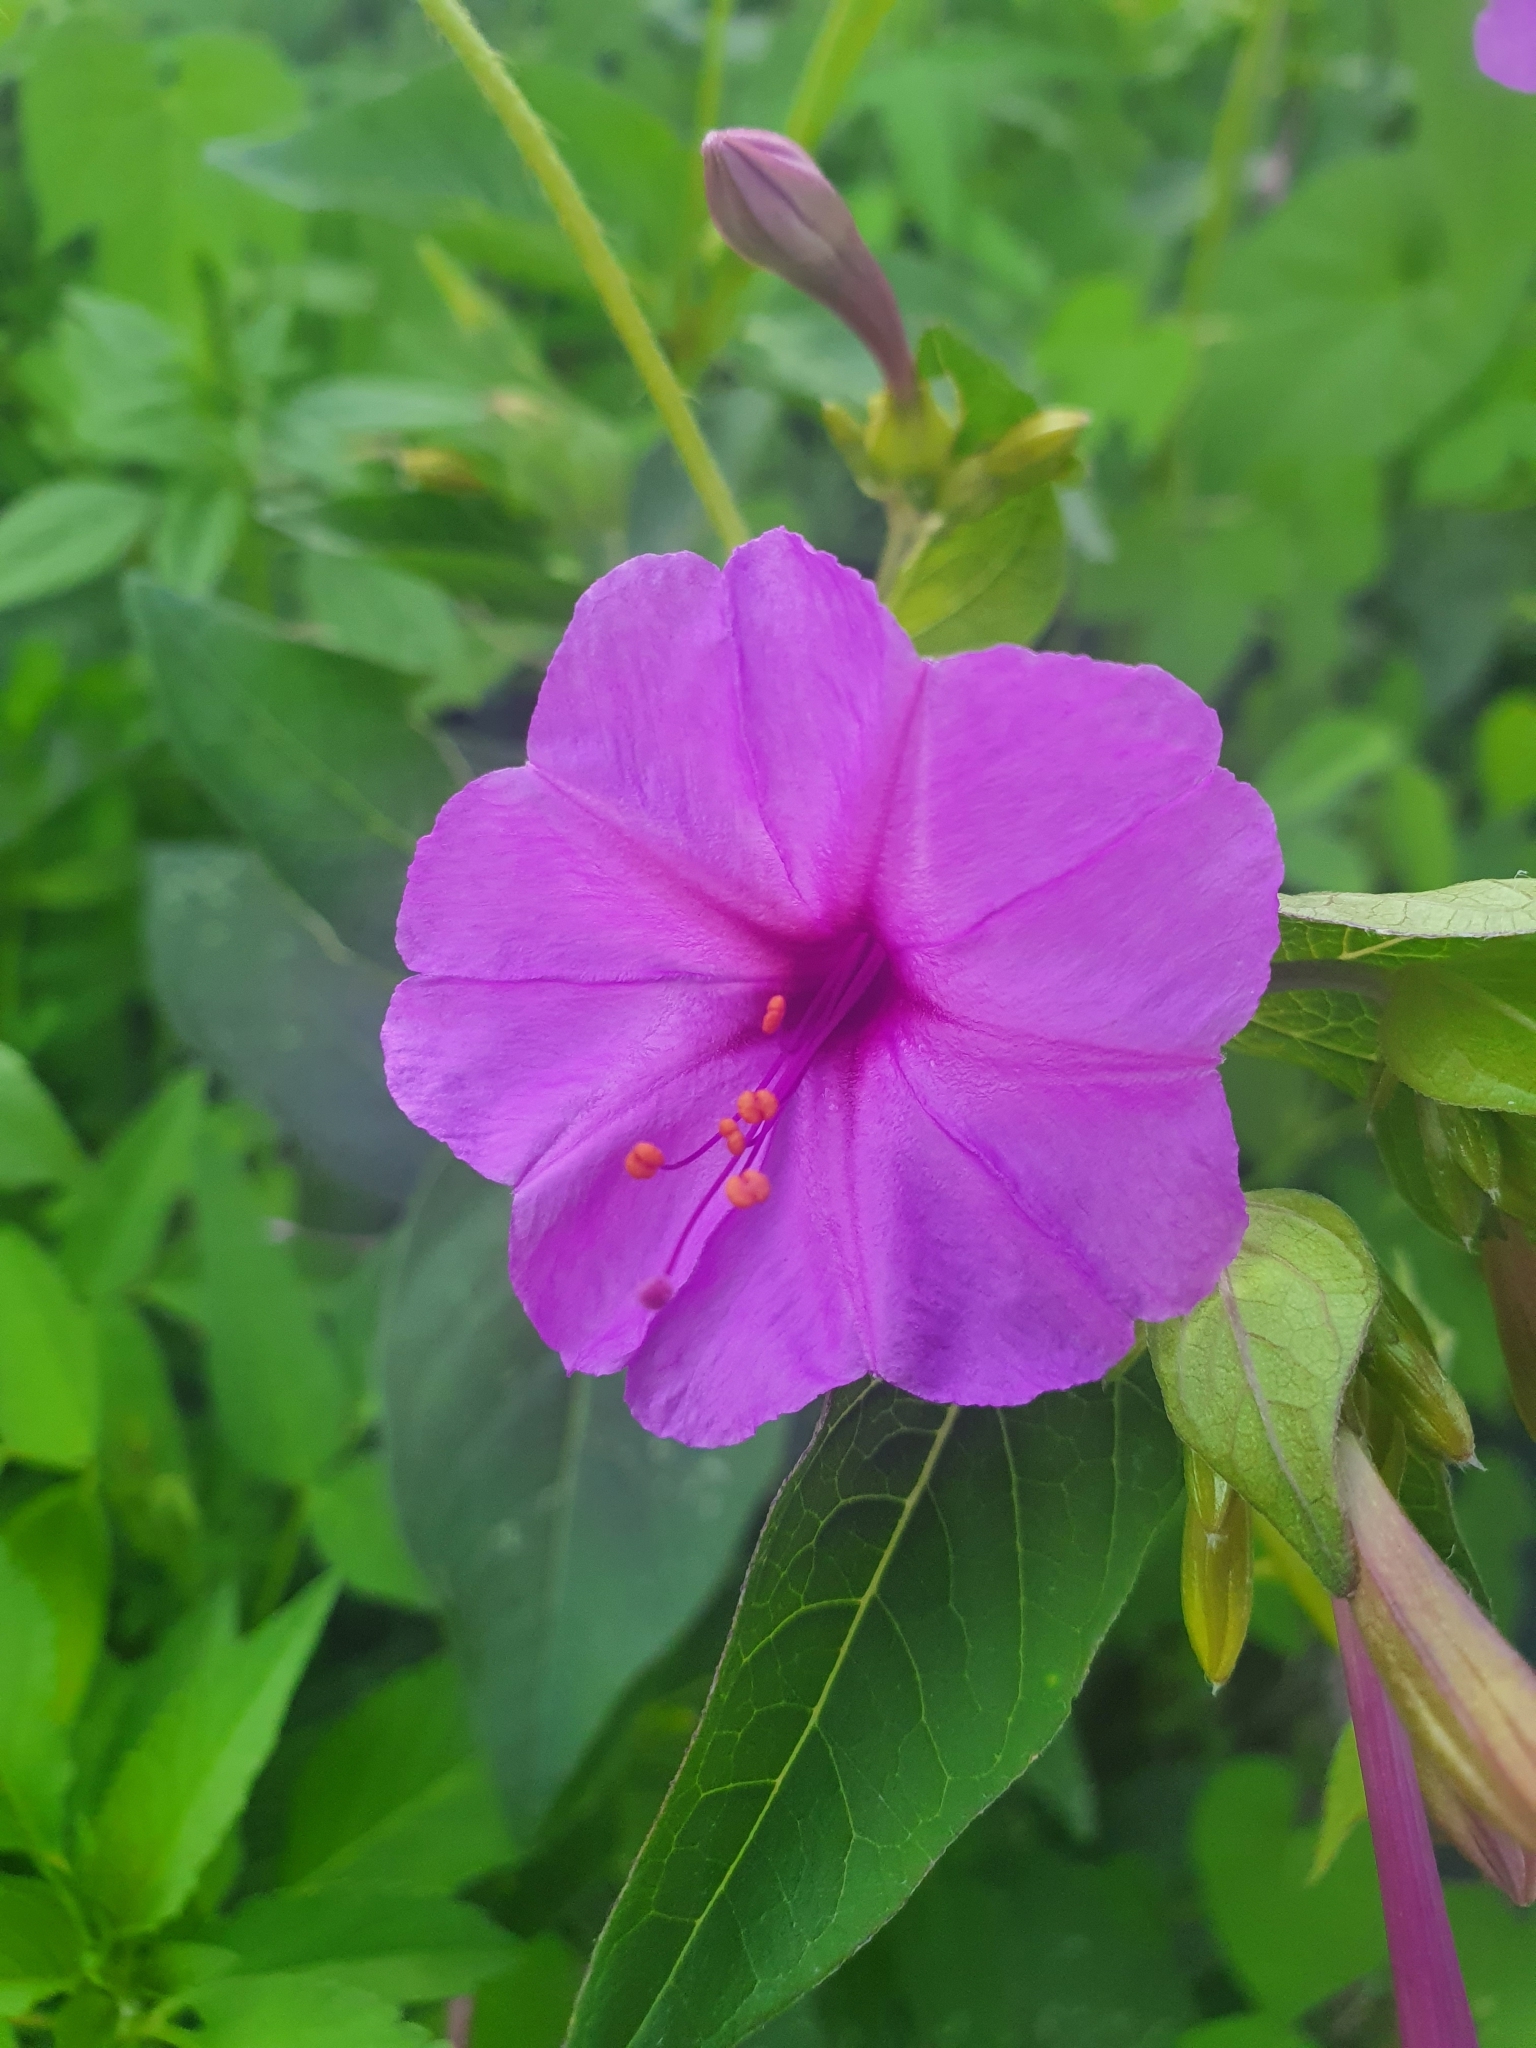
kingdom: Plantae
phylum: Tracheophyta
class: Magnoliopsida
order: Caryophyllales
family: Nyctaginaceae
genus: Mirabilis
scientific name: Mirabilis jalapa
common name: Marvel-of-peru
